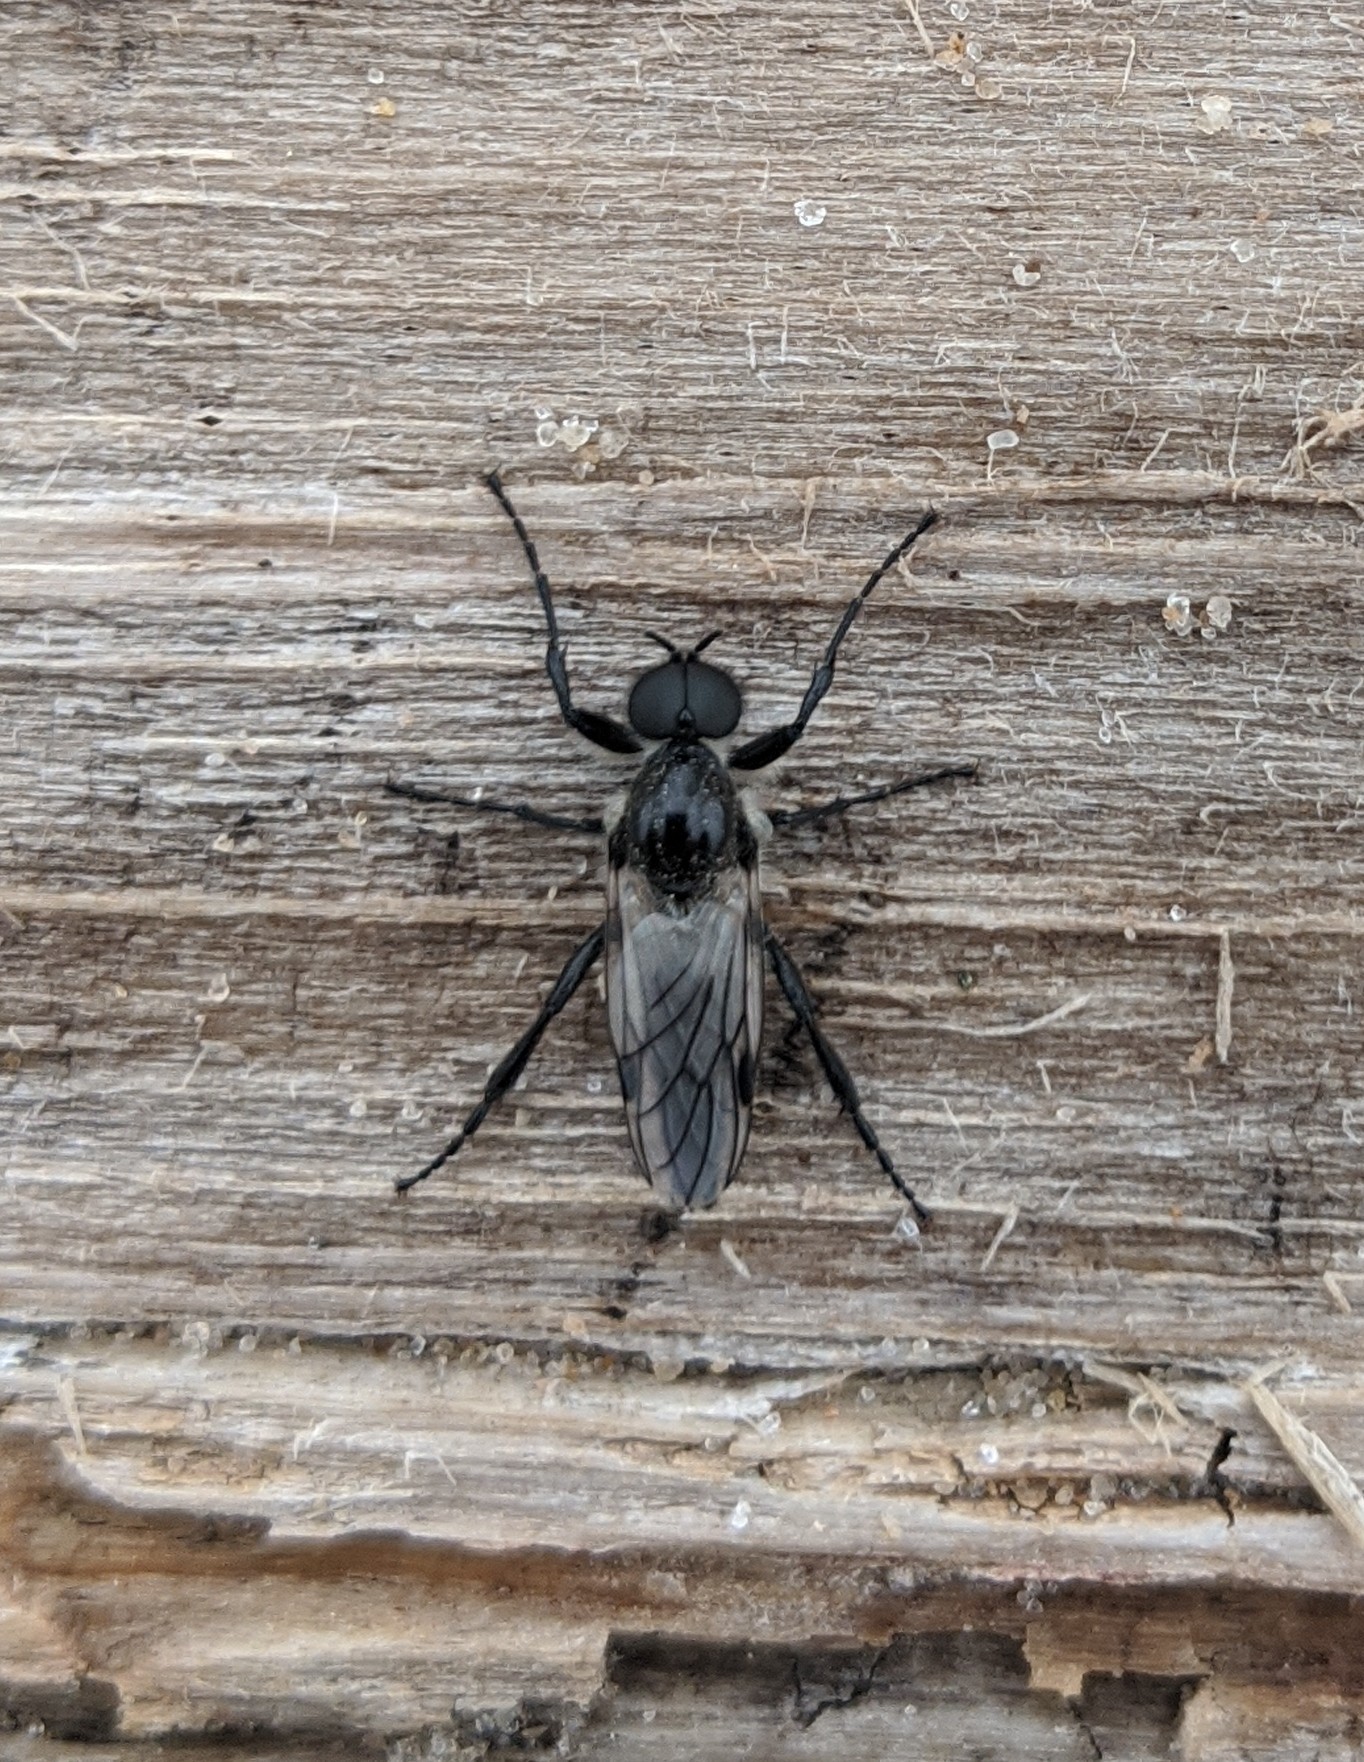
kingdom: Animalia
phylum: Arthropoda
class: Insecta
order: Diptera
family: Bibionidae
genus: Bibio
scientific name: Bibio albipennis
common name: White-winged march fly
